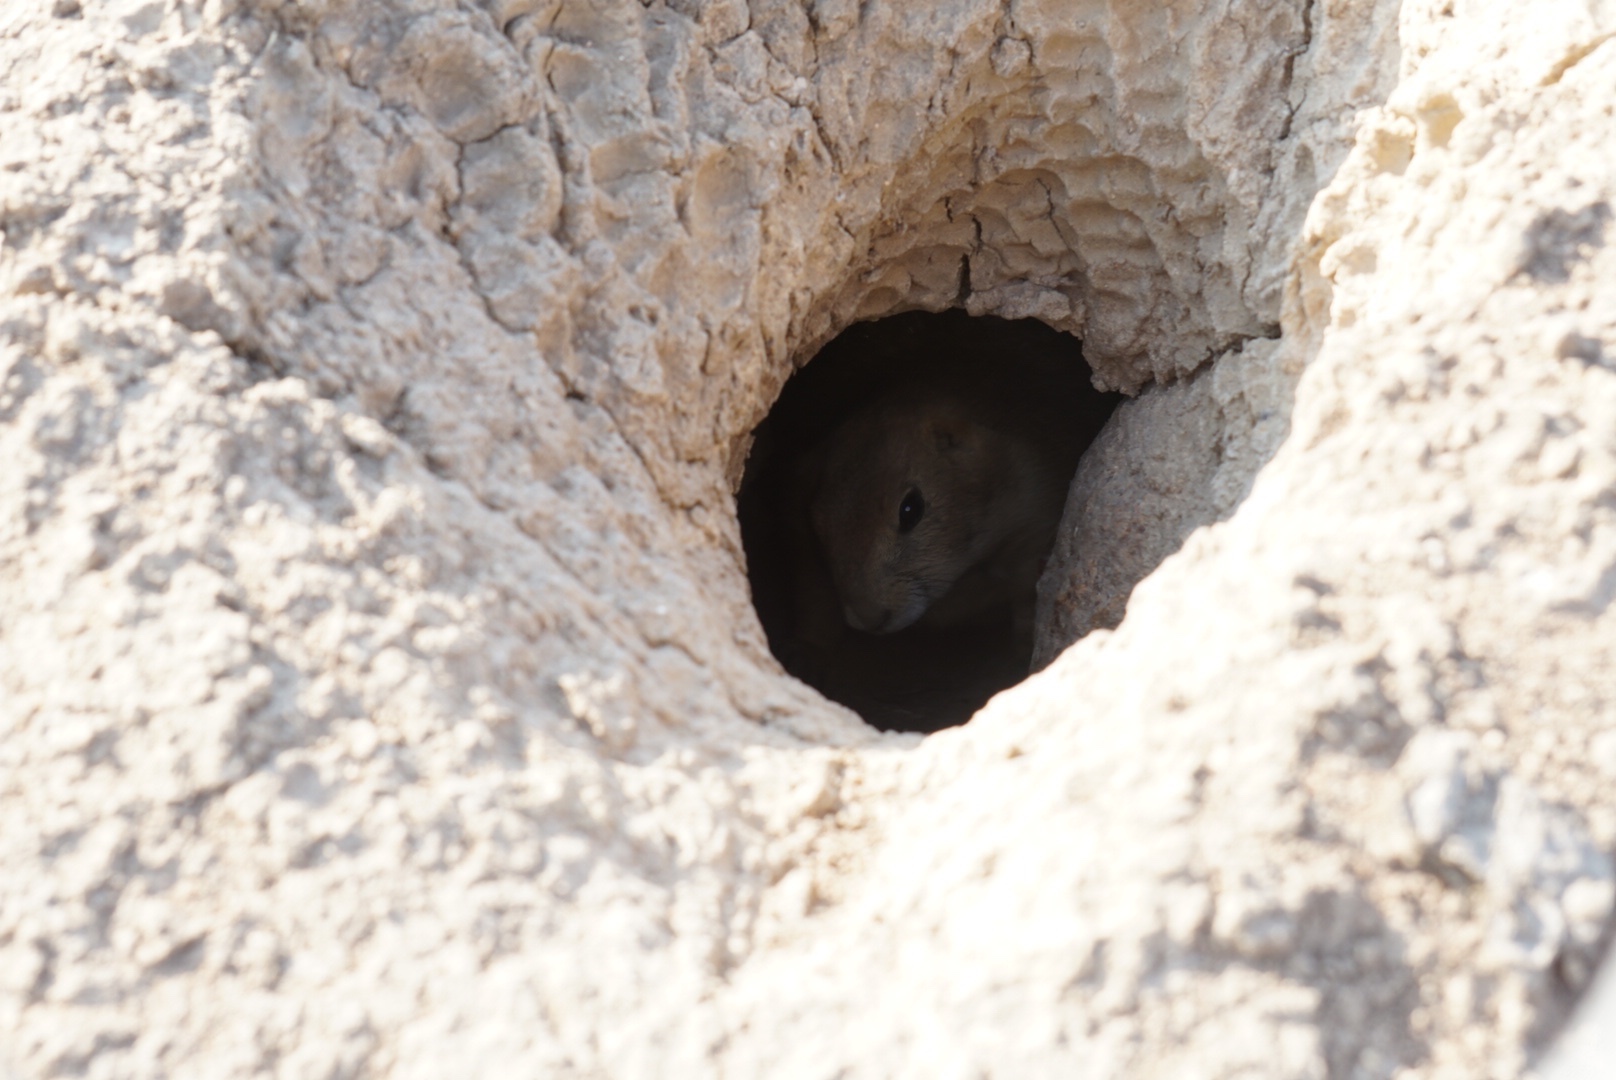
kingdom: Animalia
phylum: Chordata
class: Mammalia
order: Rodentia
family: Sciuridae
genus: Cynomys
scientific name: Cynomys ludovicianus
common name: Black-tailed prairie dog
